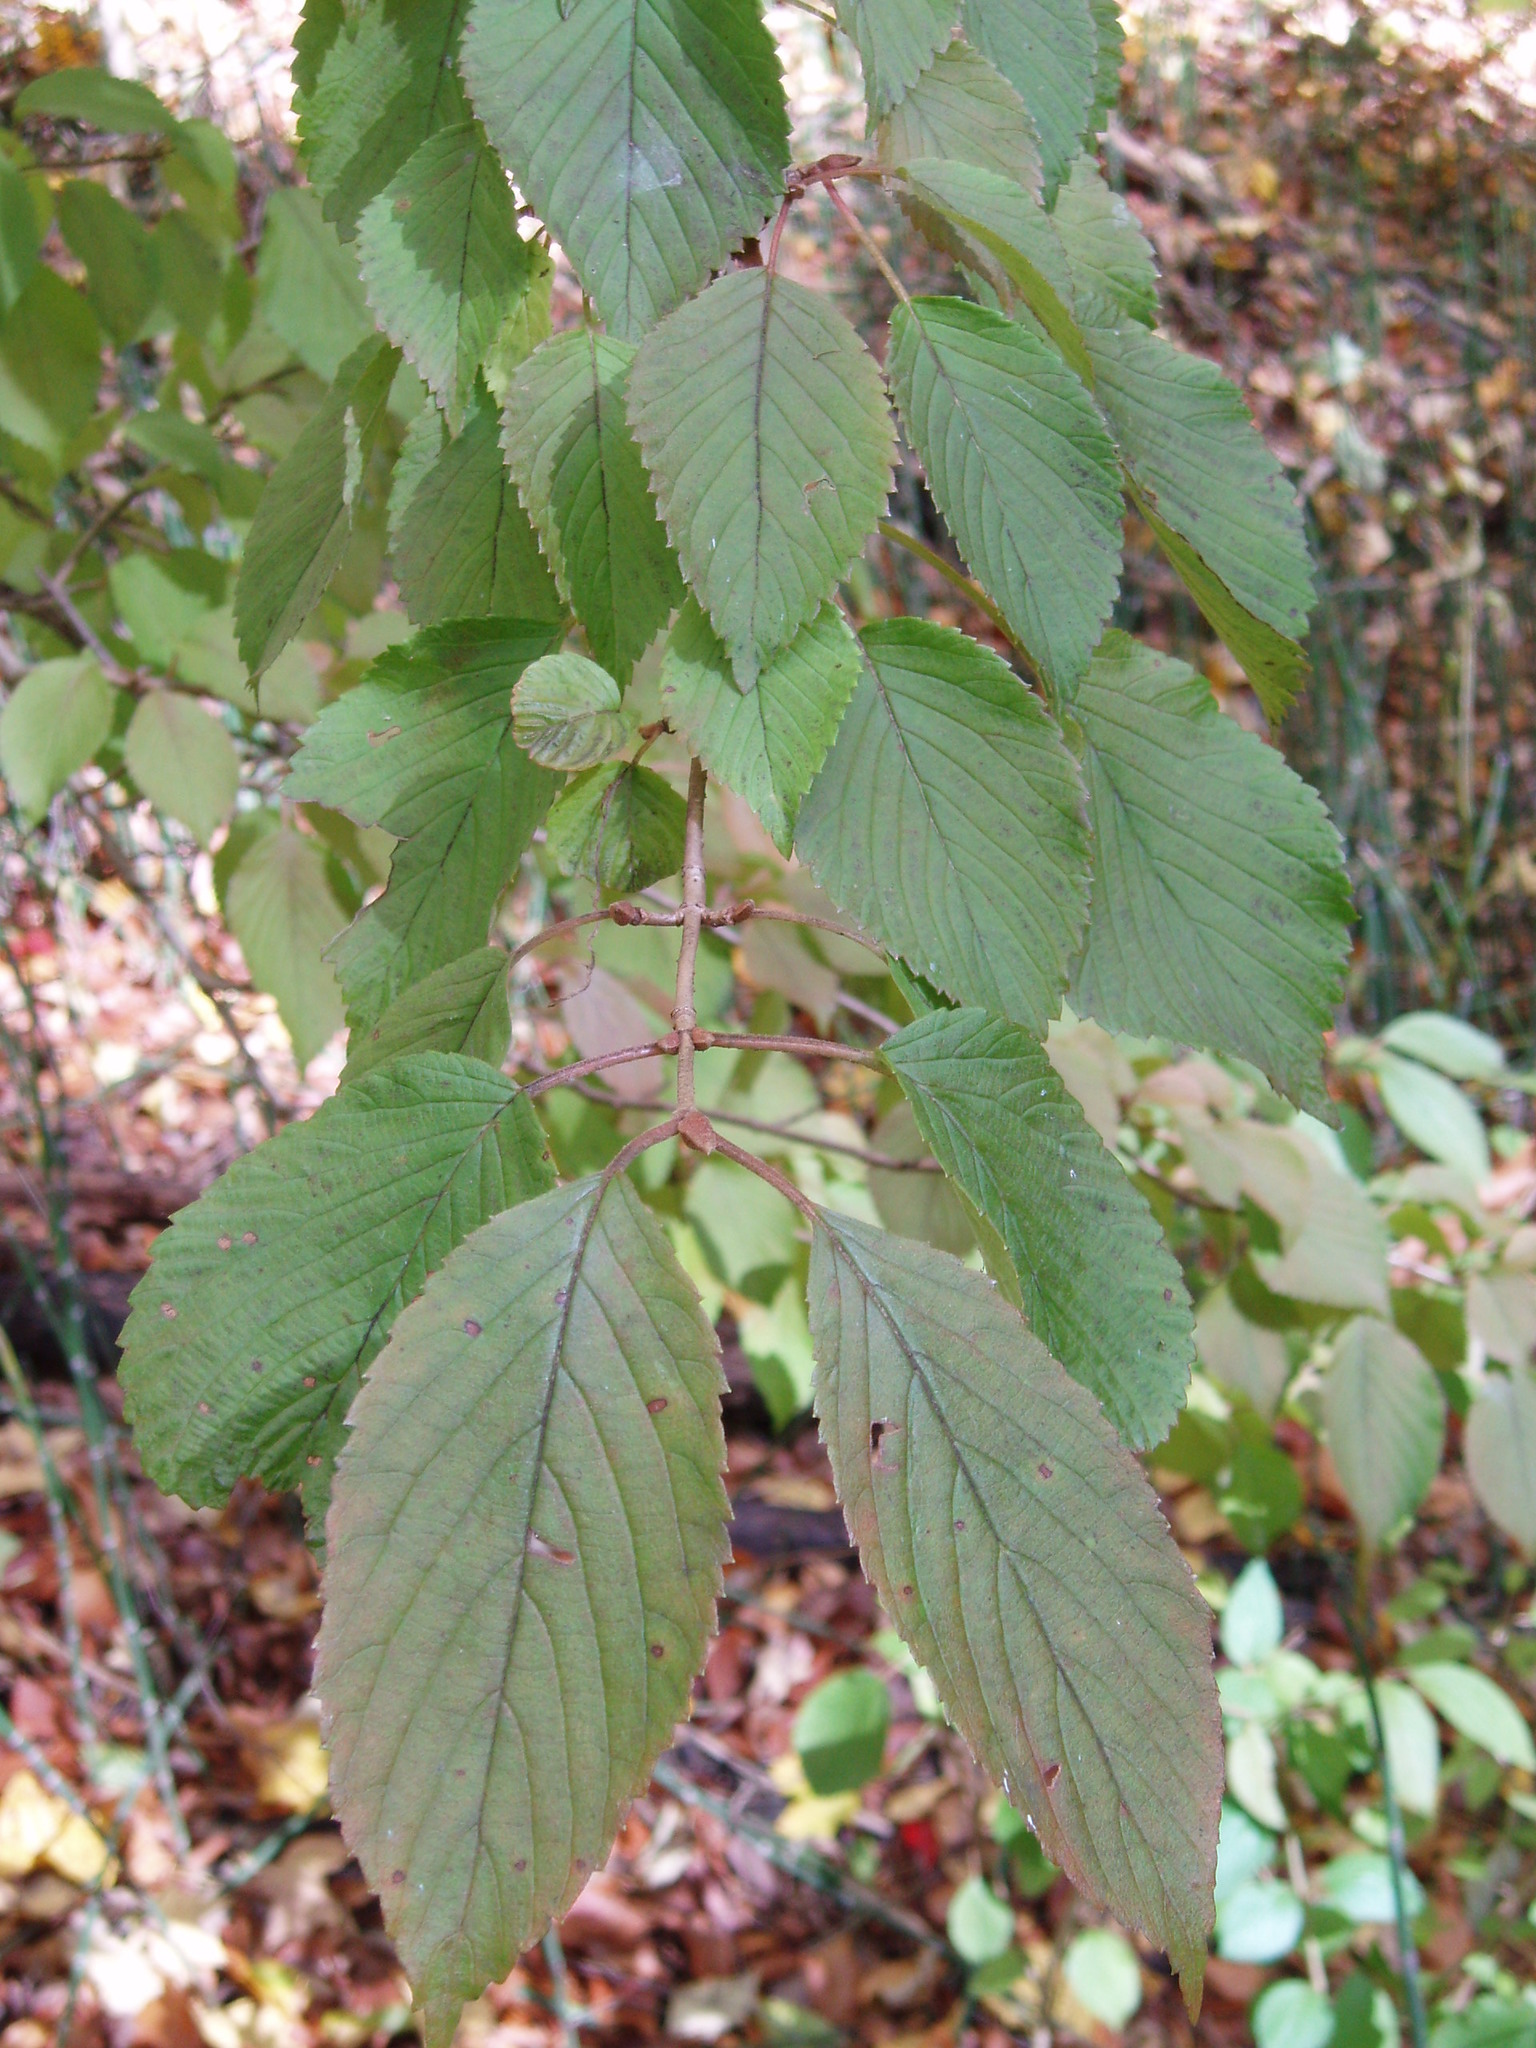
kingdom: Plantae
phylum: Tracheophyta
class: Magnoliopsida
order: Dipsacales
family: Viburnaceae
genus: Viburnum
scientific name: Viburnum plicatum
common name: Japanese snowball
